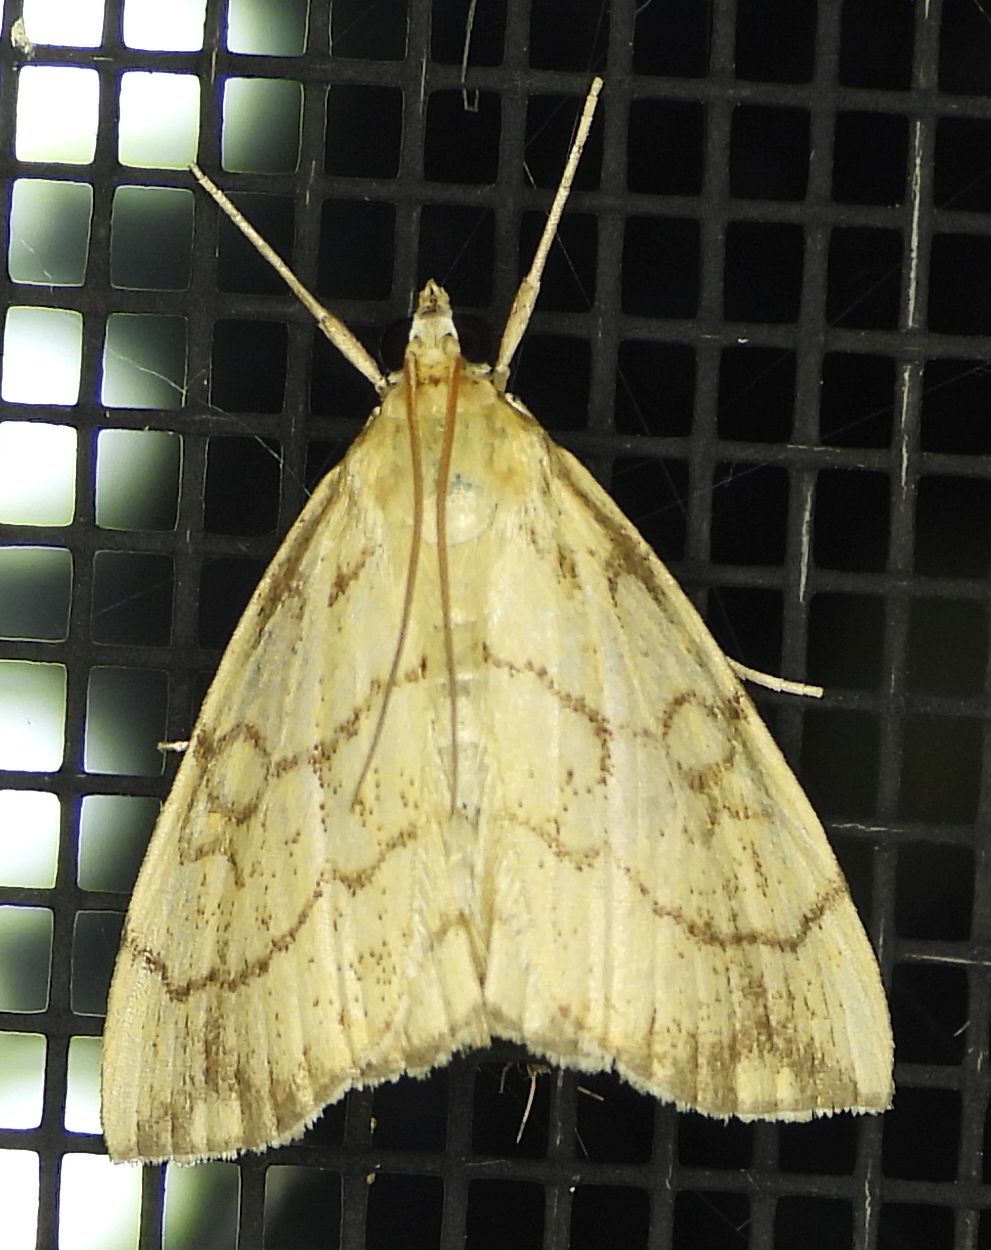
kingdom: Animalia
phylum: Arthropoda
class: Insecta
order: Lepidoptera
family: Crambidae
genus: Evergestis
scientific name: Evergestis pallidata
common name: Chequered pearl
